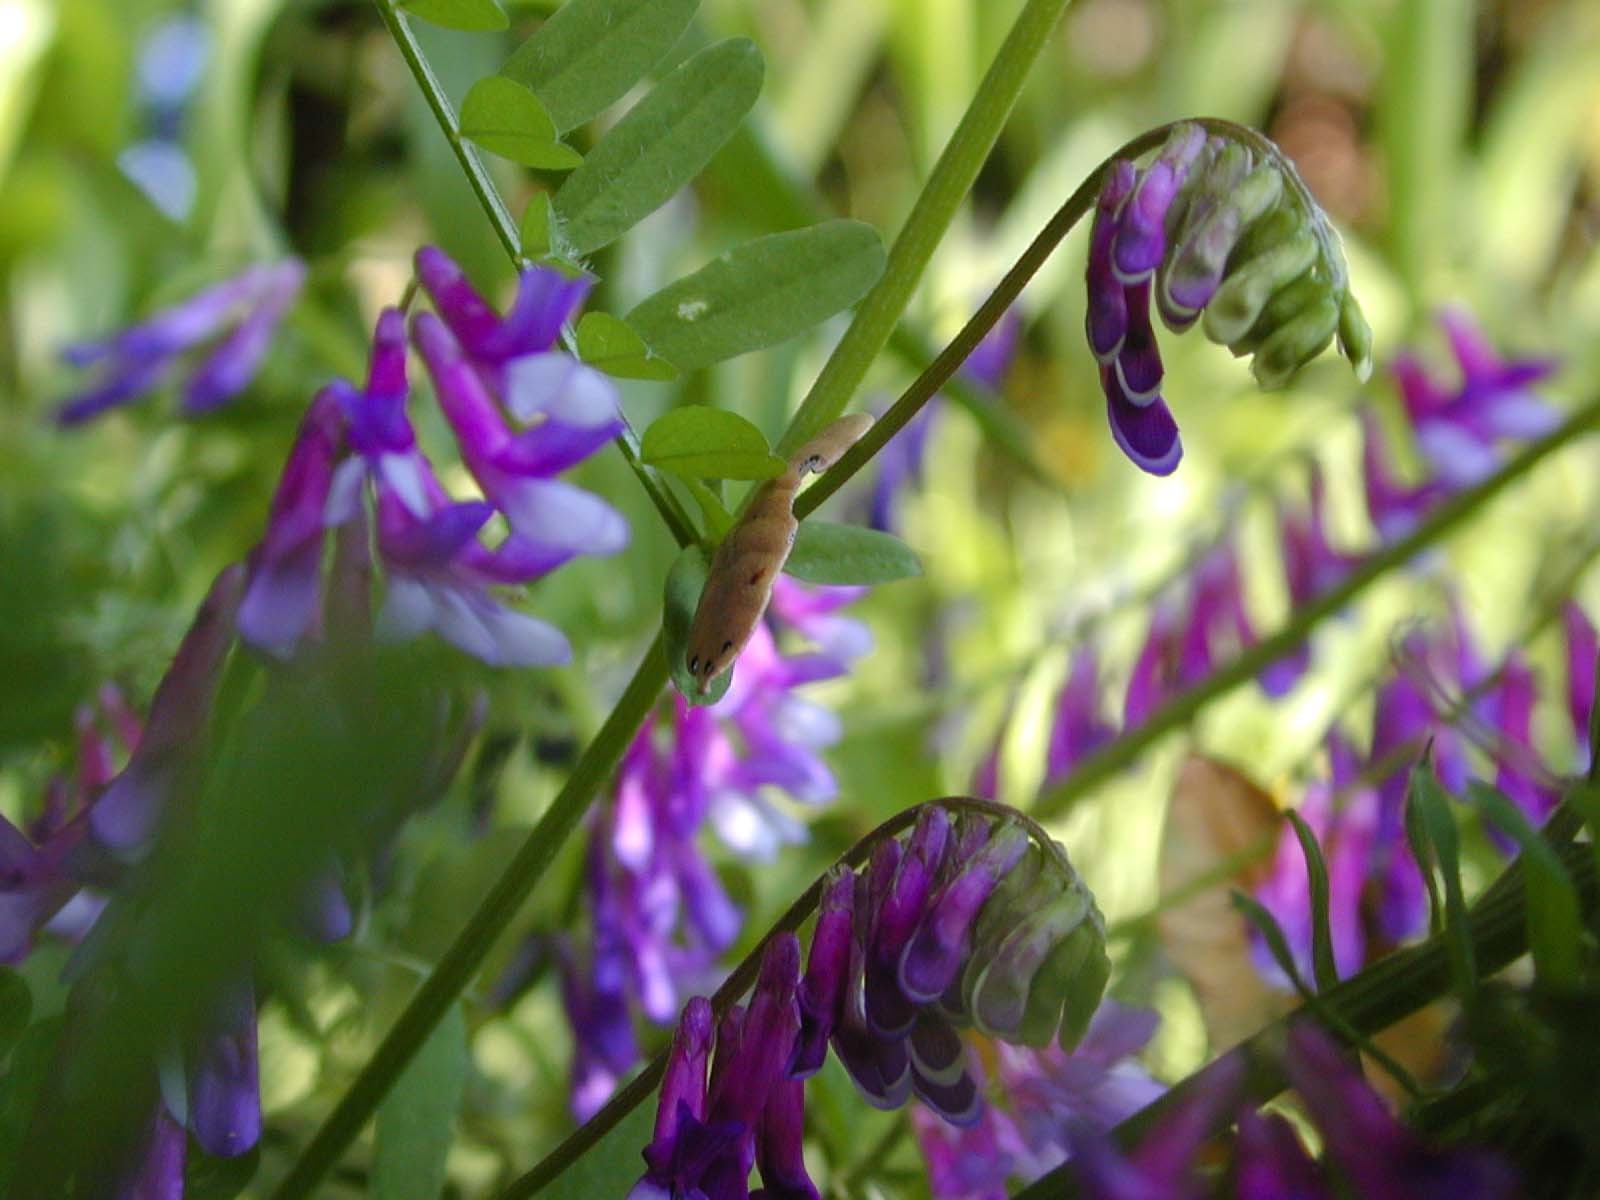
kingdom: Plantae
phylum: Tracheophyta
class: Magnoliopsida
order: Fabales
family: Fabaceae
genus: Vicia
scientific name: Vicia villosa
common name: Fodder vetch
